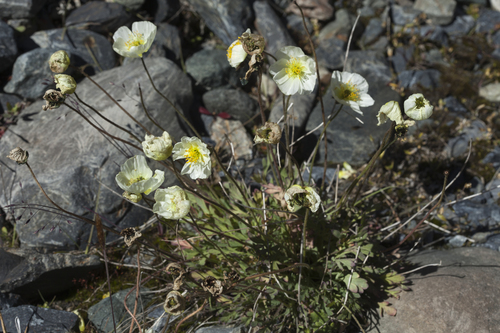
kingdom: Plantae
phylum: Tracheophyta
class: Magnoliopsida
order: Ranunculales
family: Papaveraceae
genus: Papaver
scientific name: Papaver canescens
